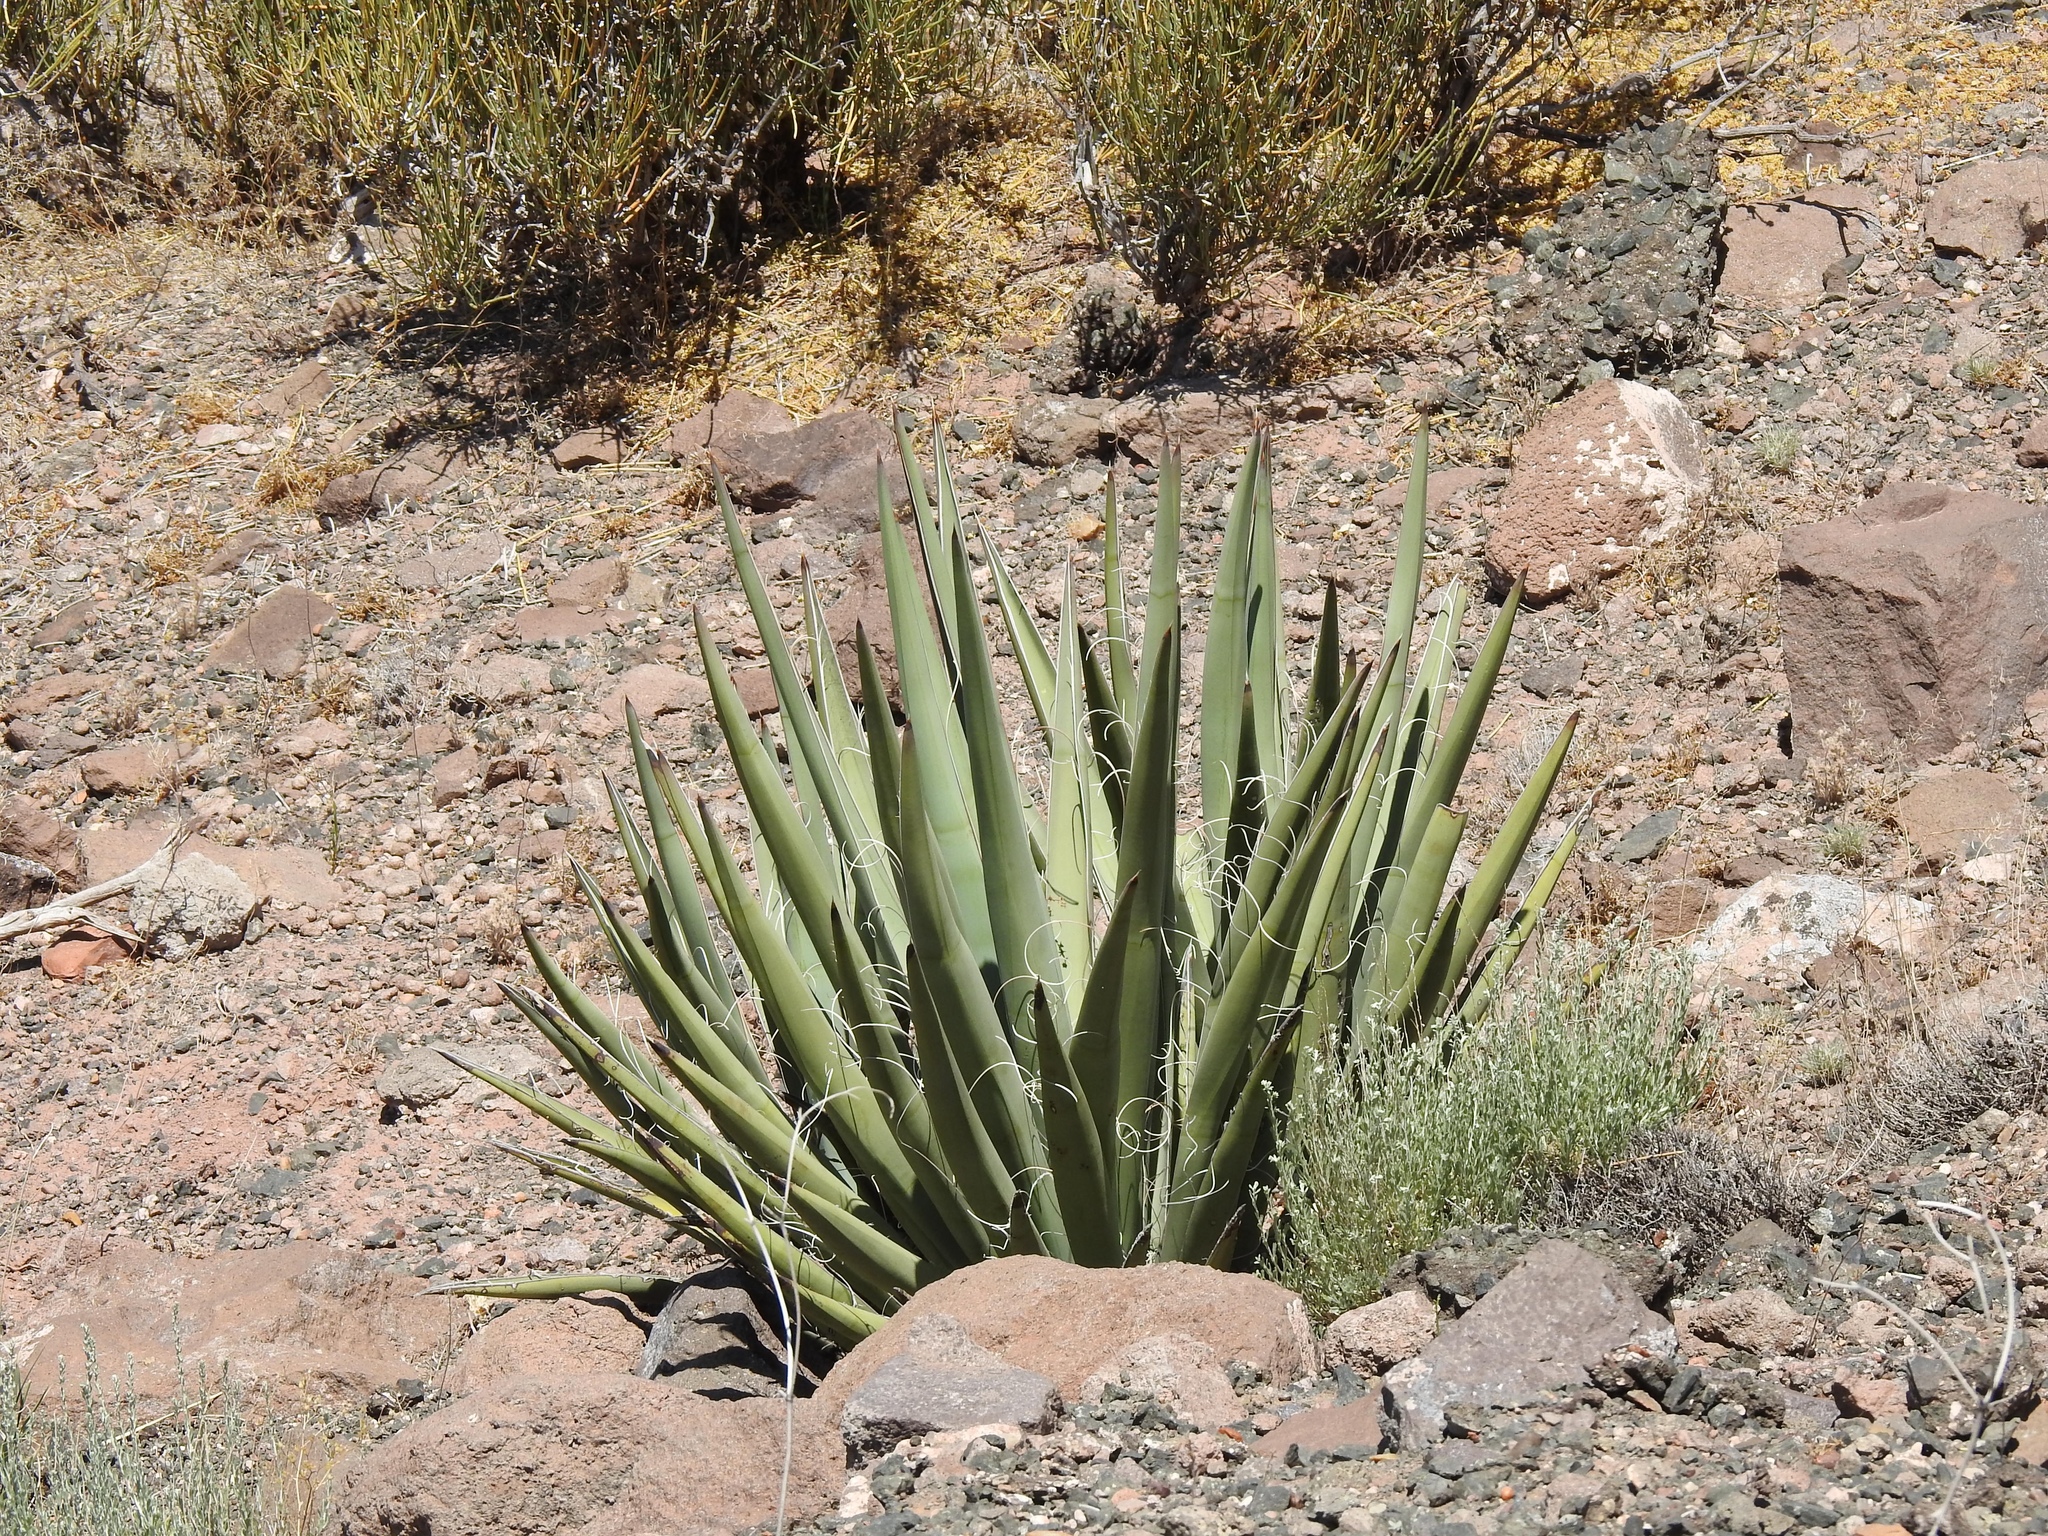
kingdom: Plantae
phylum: Tracheophyta
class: Liliopsida
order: Asparagales
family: Asparagaceae
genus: Yucca
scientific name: Yucca baccata
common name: Banana yucca
